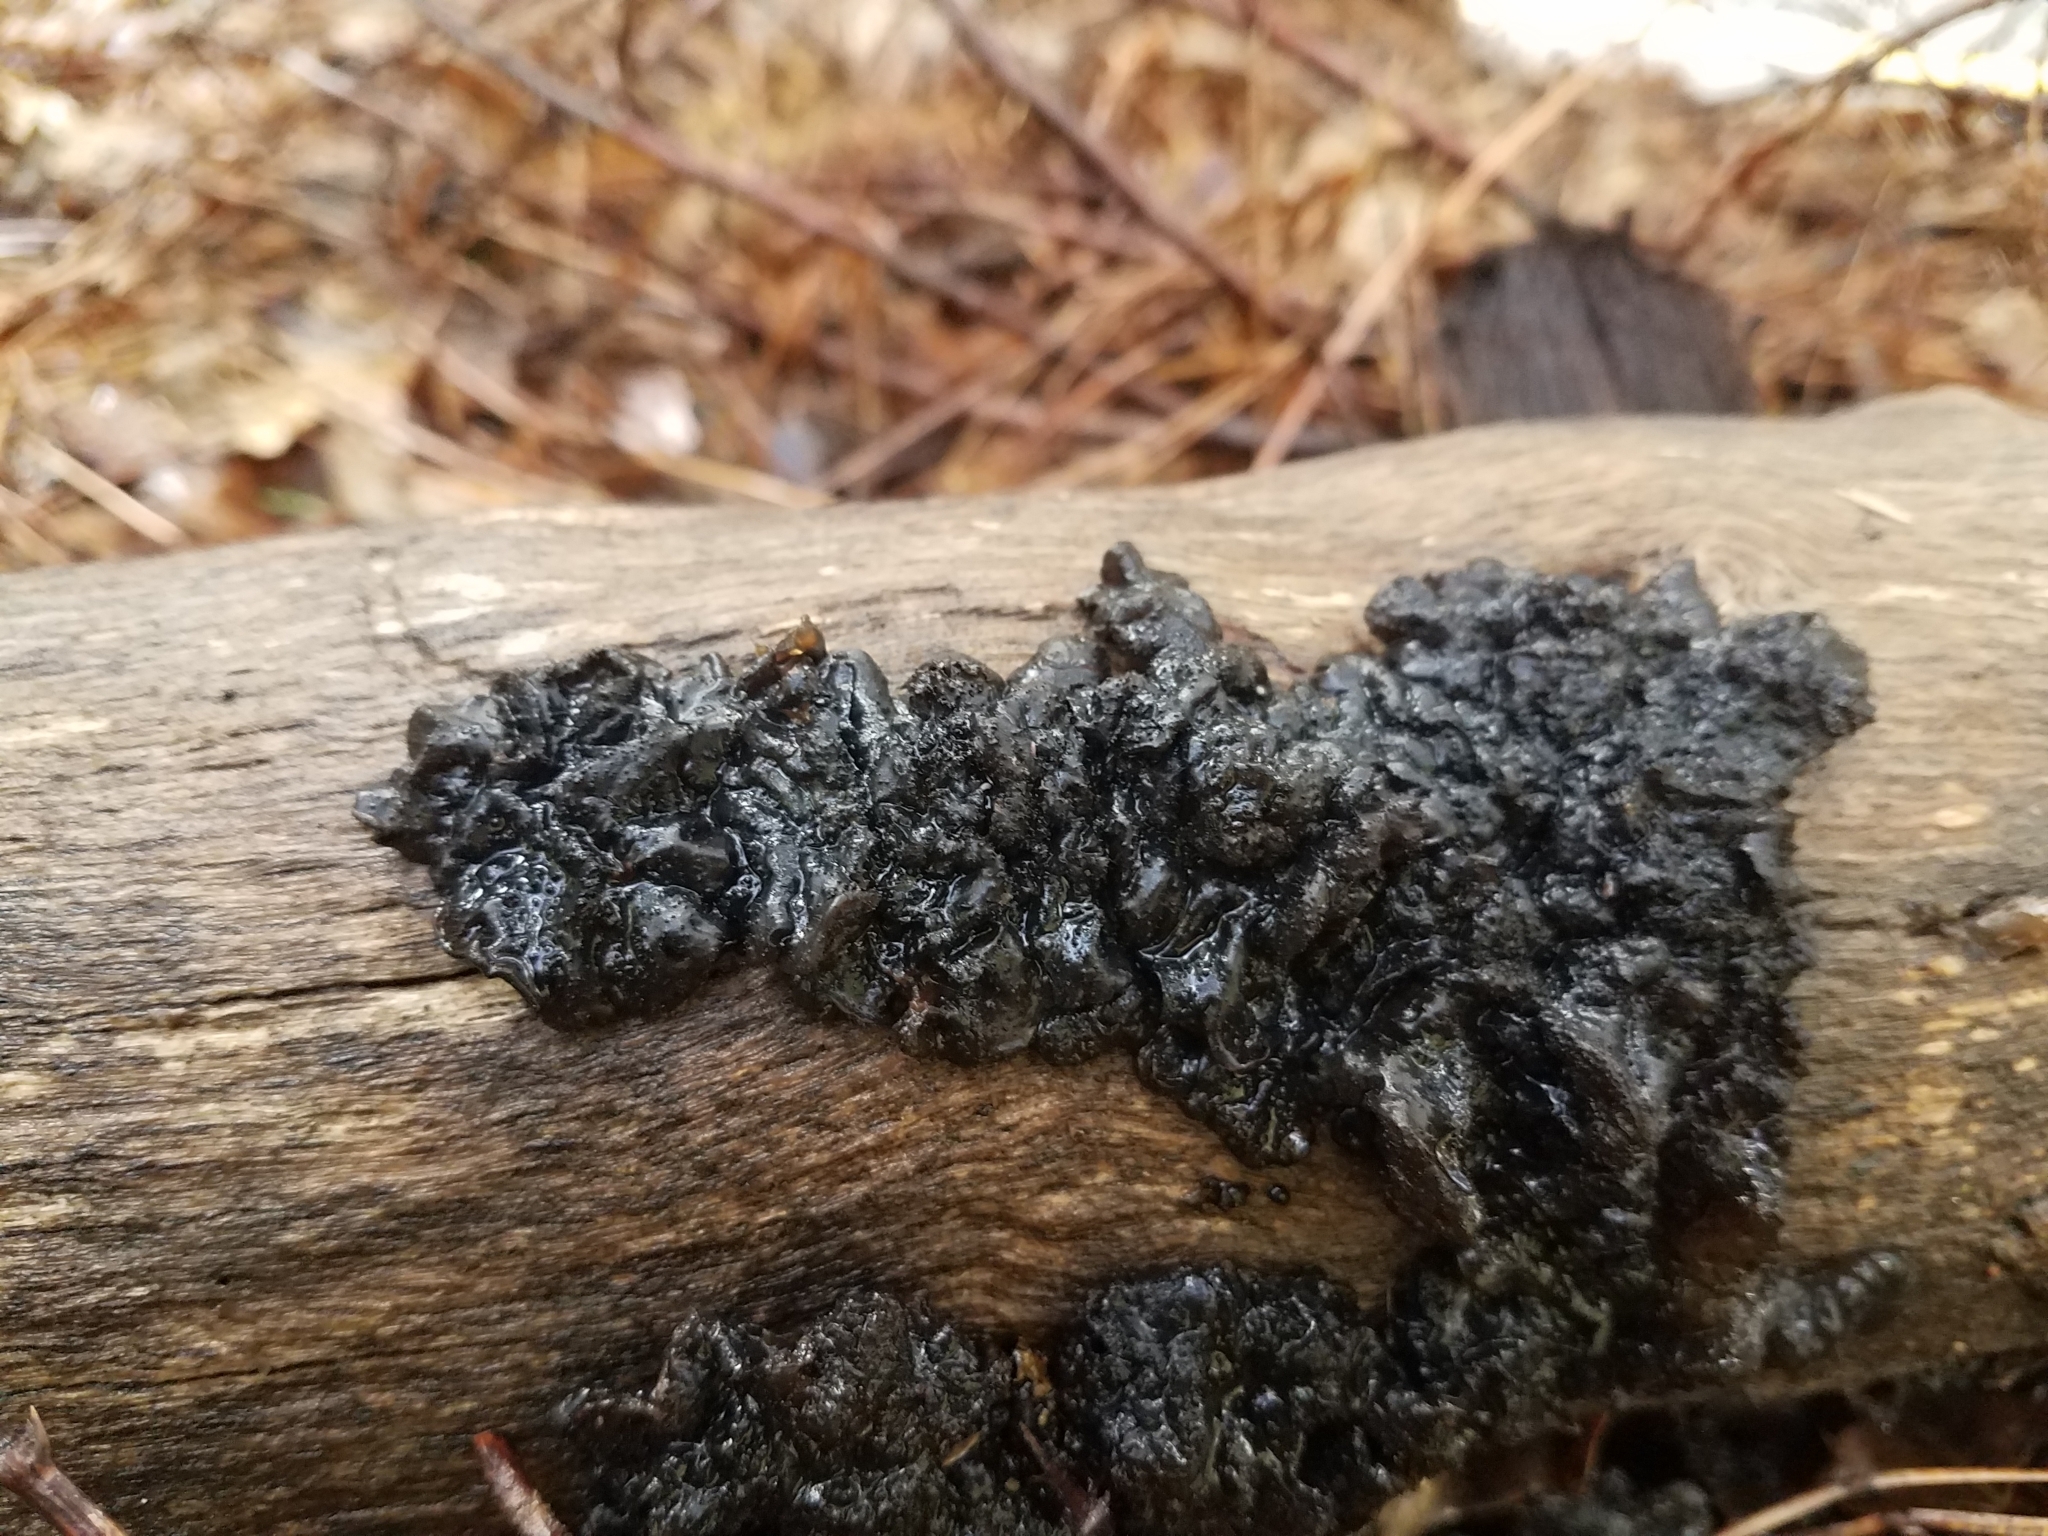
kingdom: Fungi
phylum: Basidiomycota
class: Agaricomycetes
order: Auriculariales
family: Auriculariaceae
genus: Exidia
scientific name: Exidia glandulosa
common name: Witches' butter
